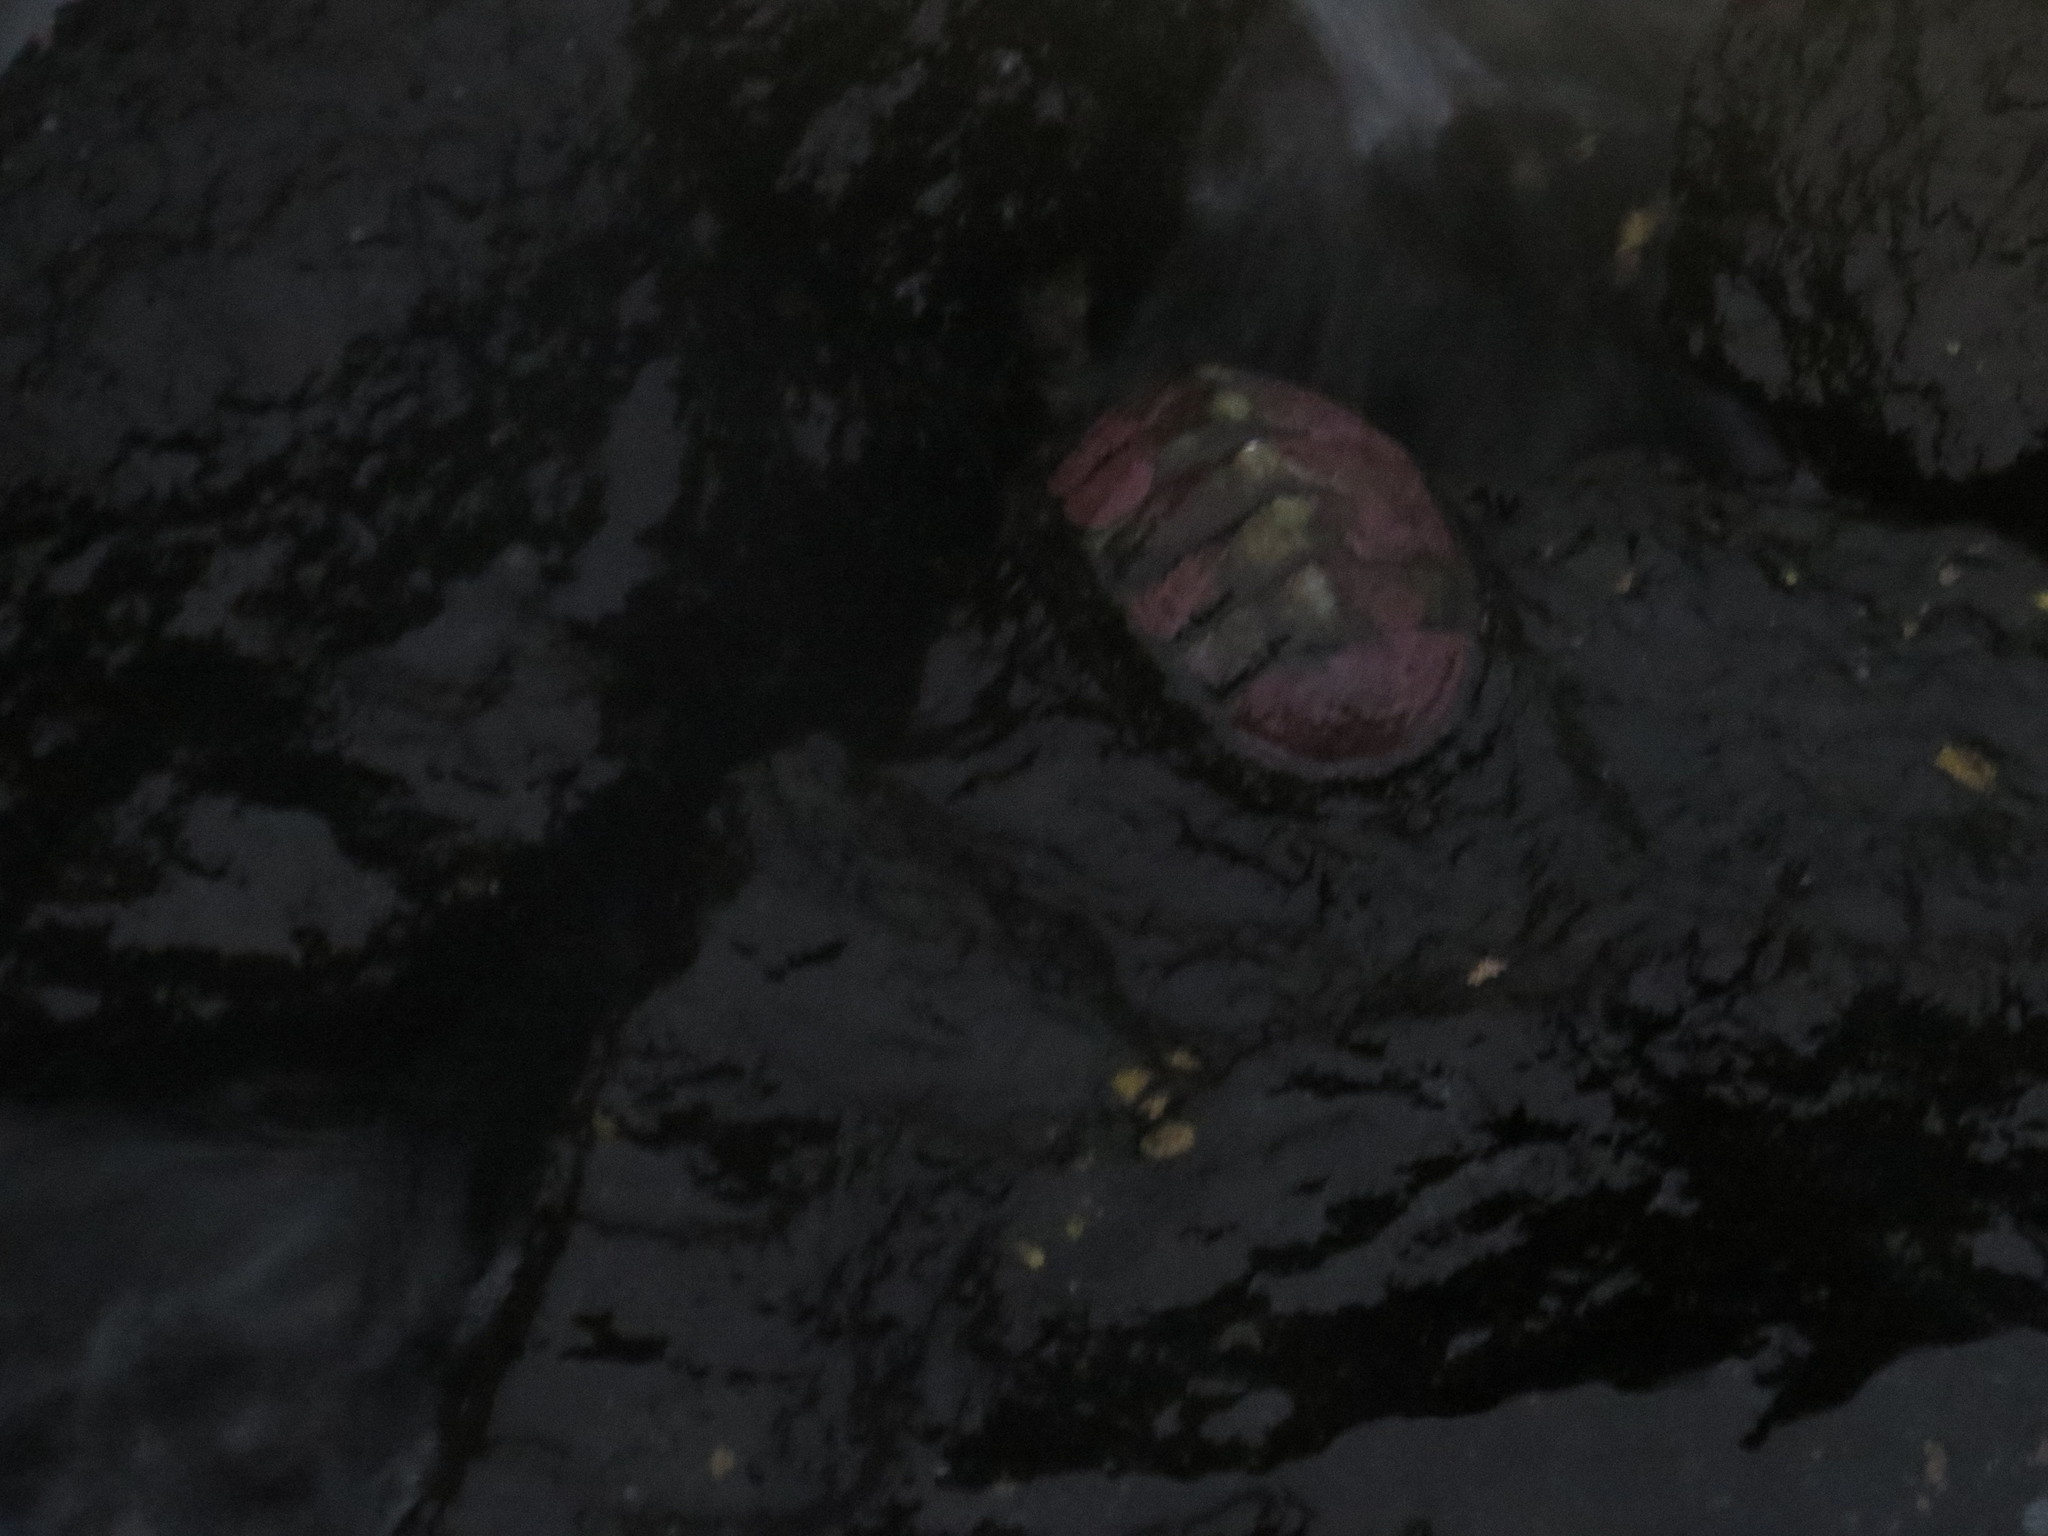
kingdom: Animalia
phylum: Mollusca
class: Polyplacophora
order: Chitonida
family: Chitonidae
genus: Radsia
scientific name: Radsia goodallii
